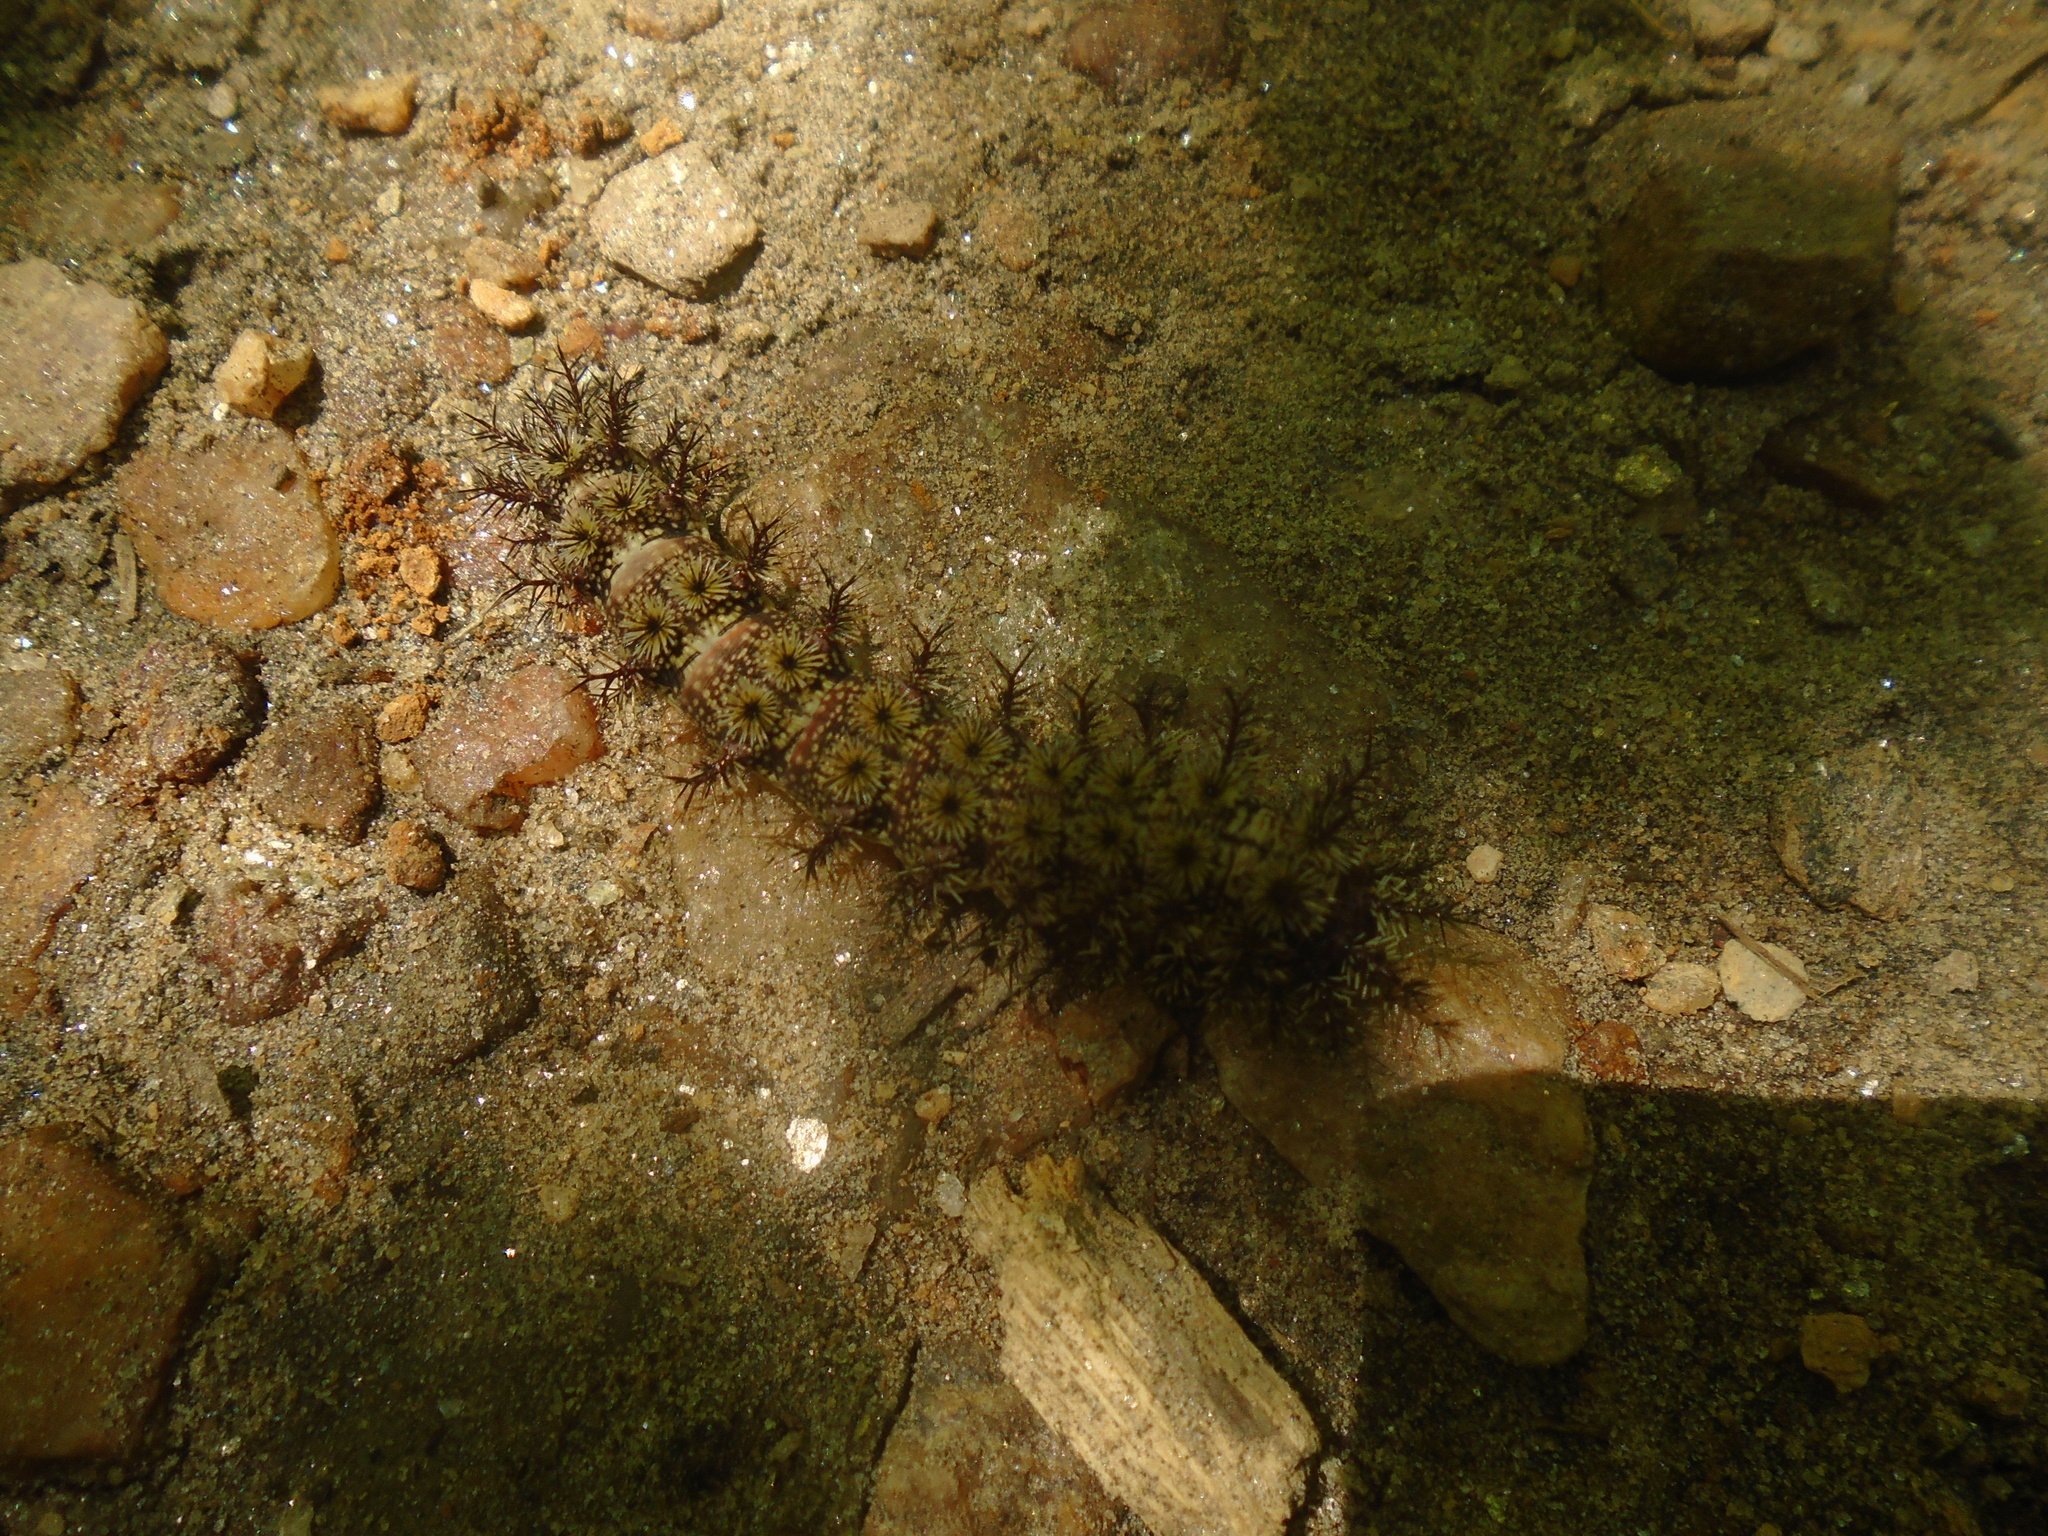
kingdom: Animalia
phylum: Arthropoda
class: Insecta
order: Lepidoptera
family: Saturniidae
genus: Hemileuca
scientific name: Hemileuca maia
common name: Eastern buckmoth
